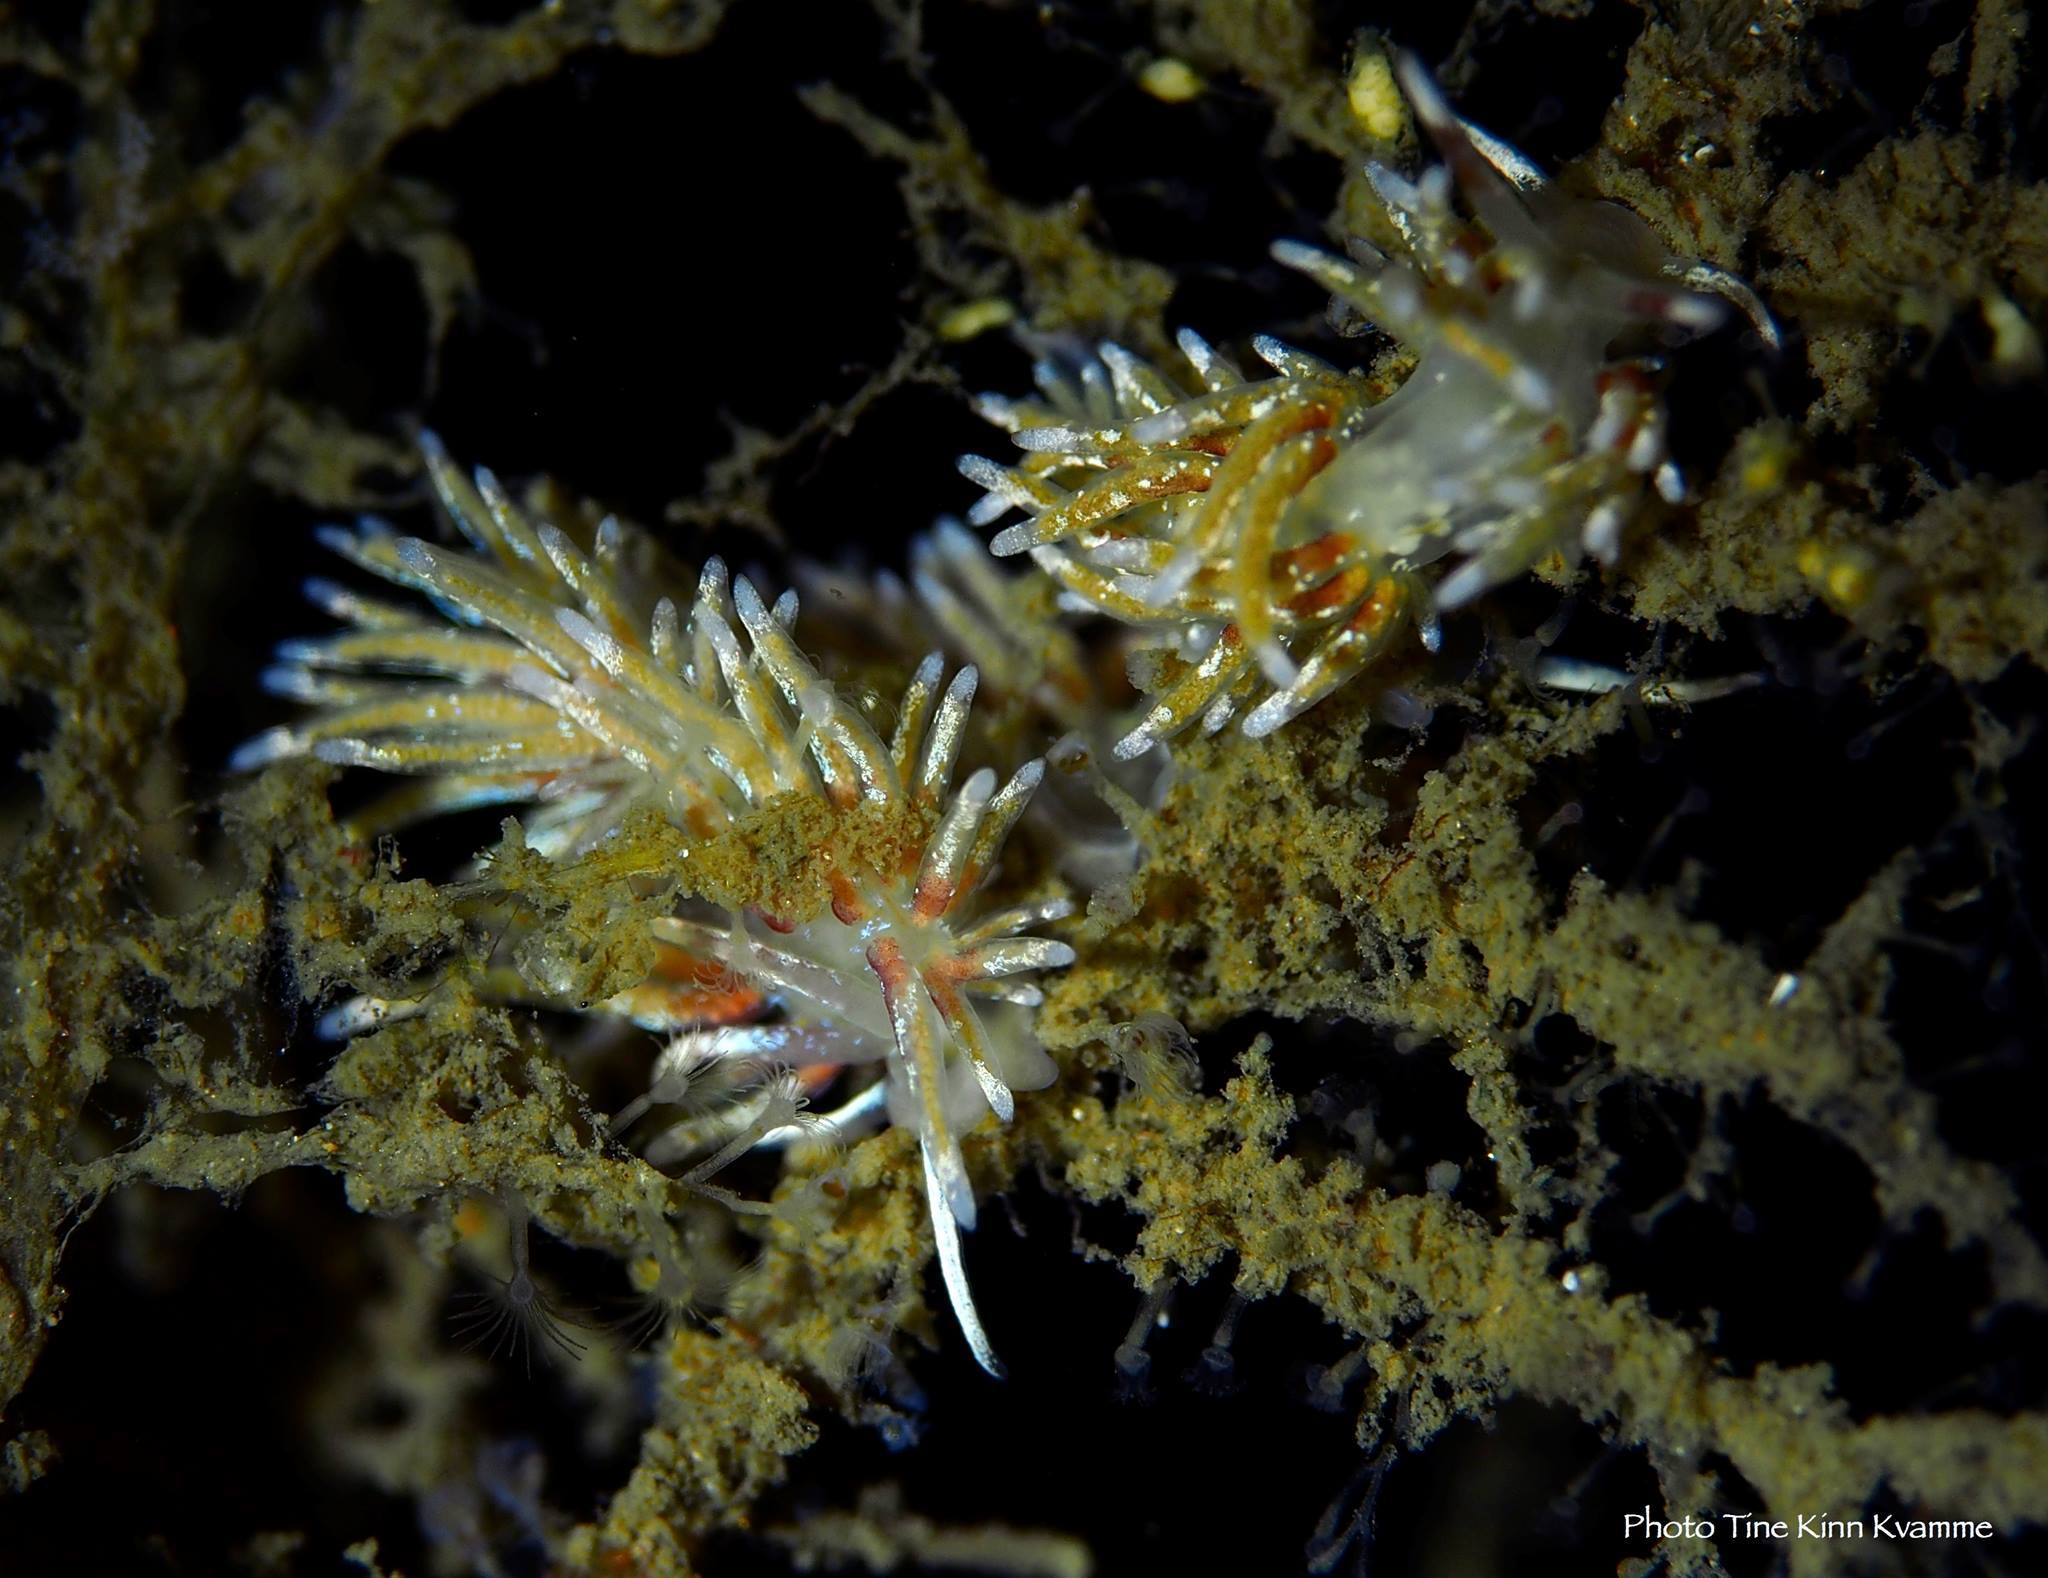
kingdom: Animalia
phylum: Mollusca
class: Gastropoda
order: Nudibranchia
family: Trinchesiidae
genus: Rubramoena
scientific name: Rubramoena rubescens
